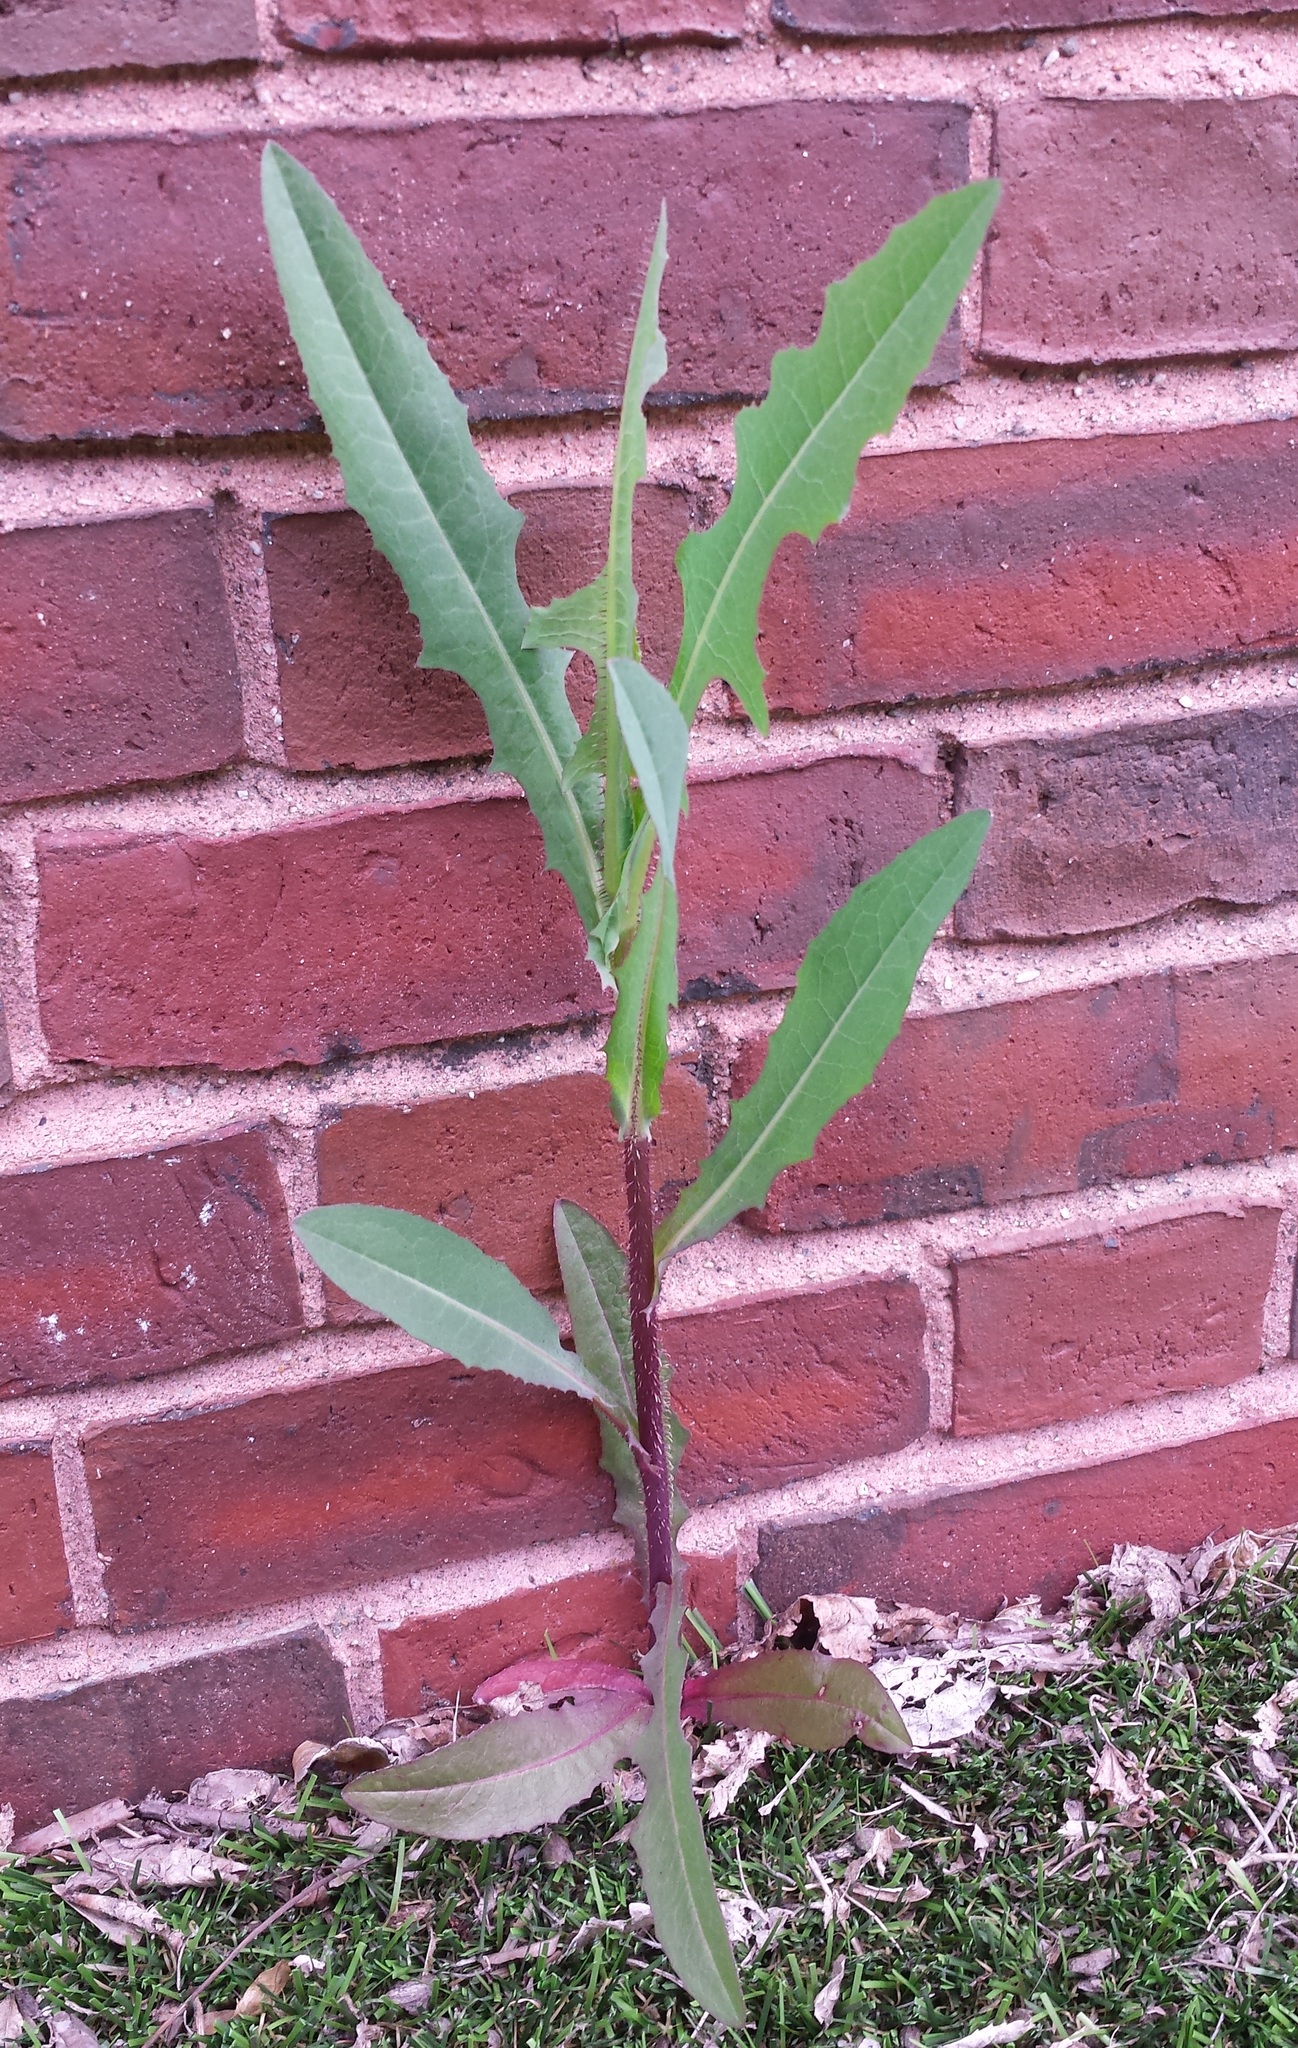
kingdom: Plantae
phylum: Tracheophyta
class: Magnoliopsida
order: Asterales
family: Asteraceae
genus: Lactuca
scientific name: Lactuca serriola
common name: Prickly lettuce
